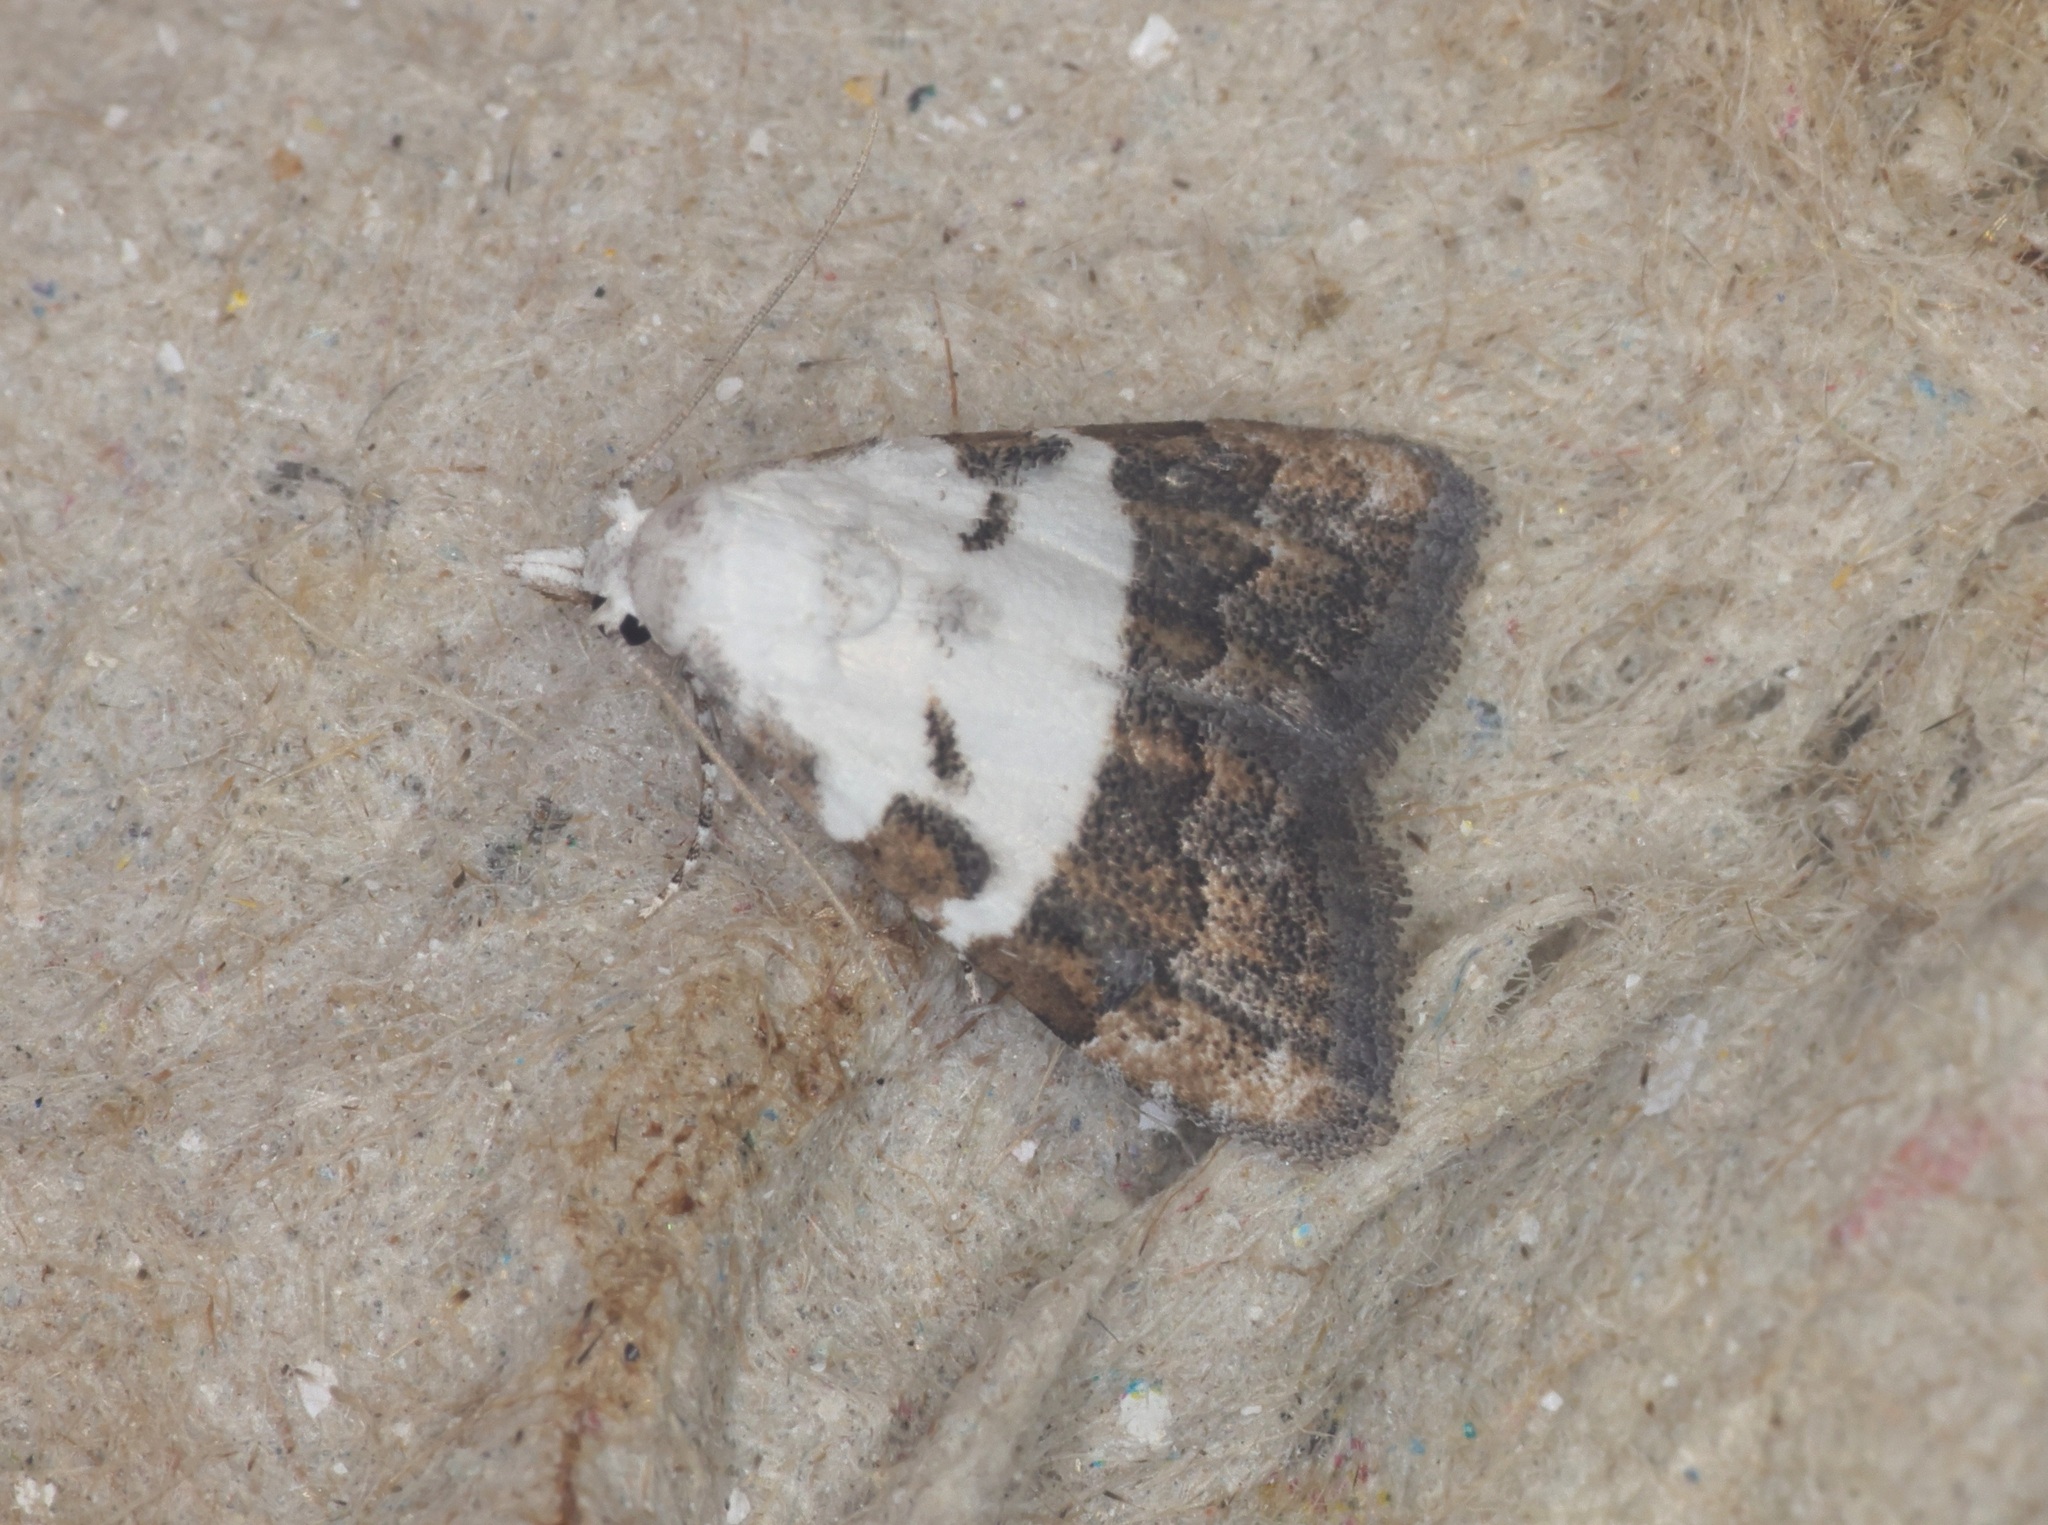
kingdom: Animalia
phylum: Arthropoda
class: Insecta
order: Lepidoptera
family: Nolidae
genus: Nola
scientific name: Nola lucidalis
